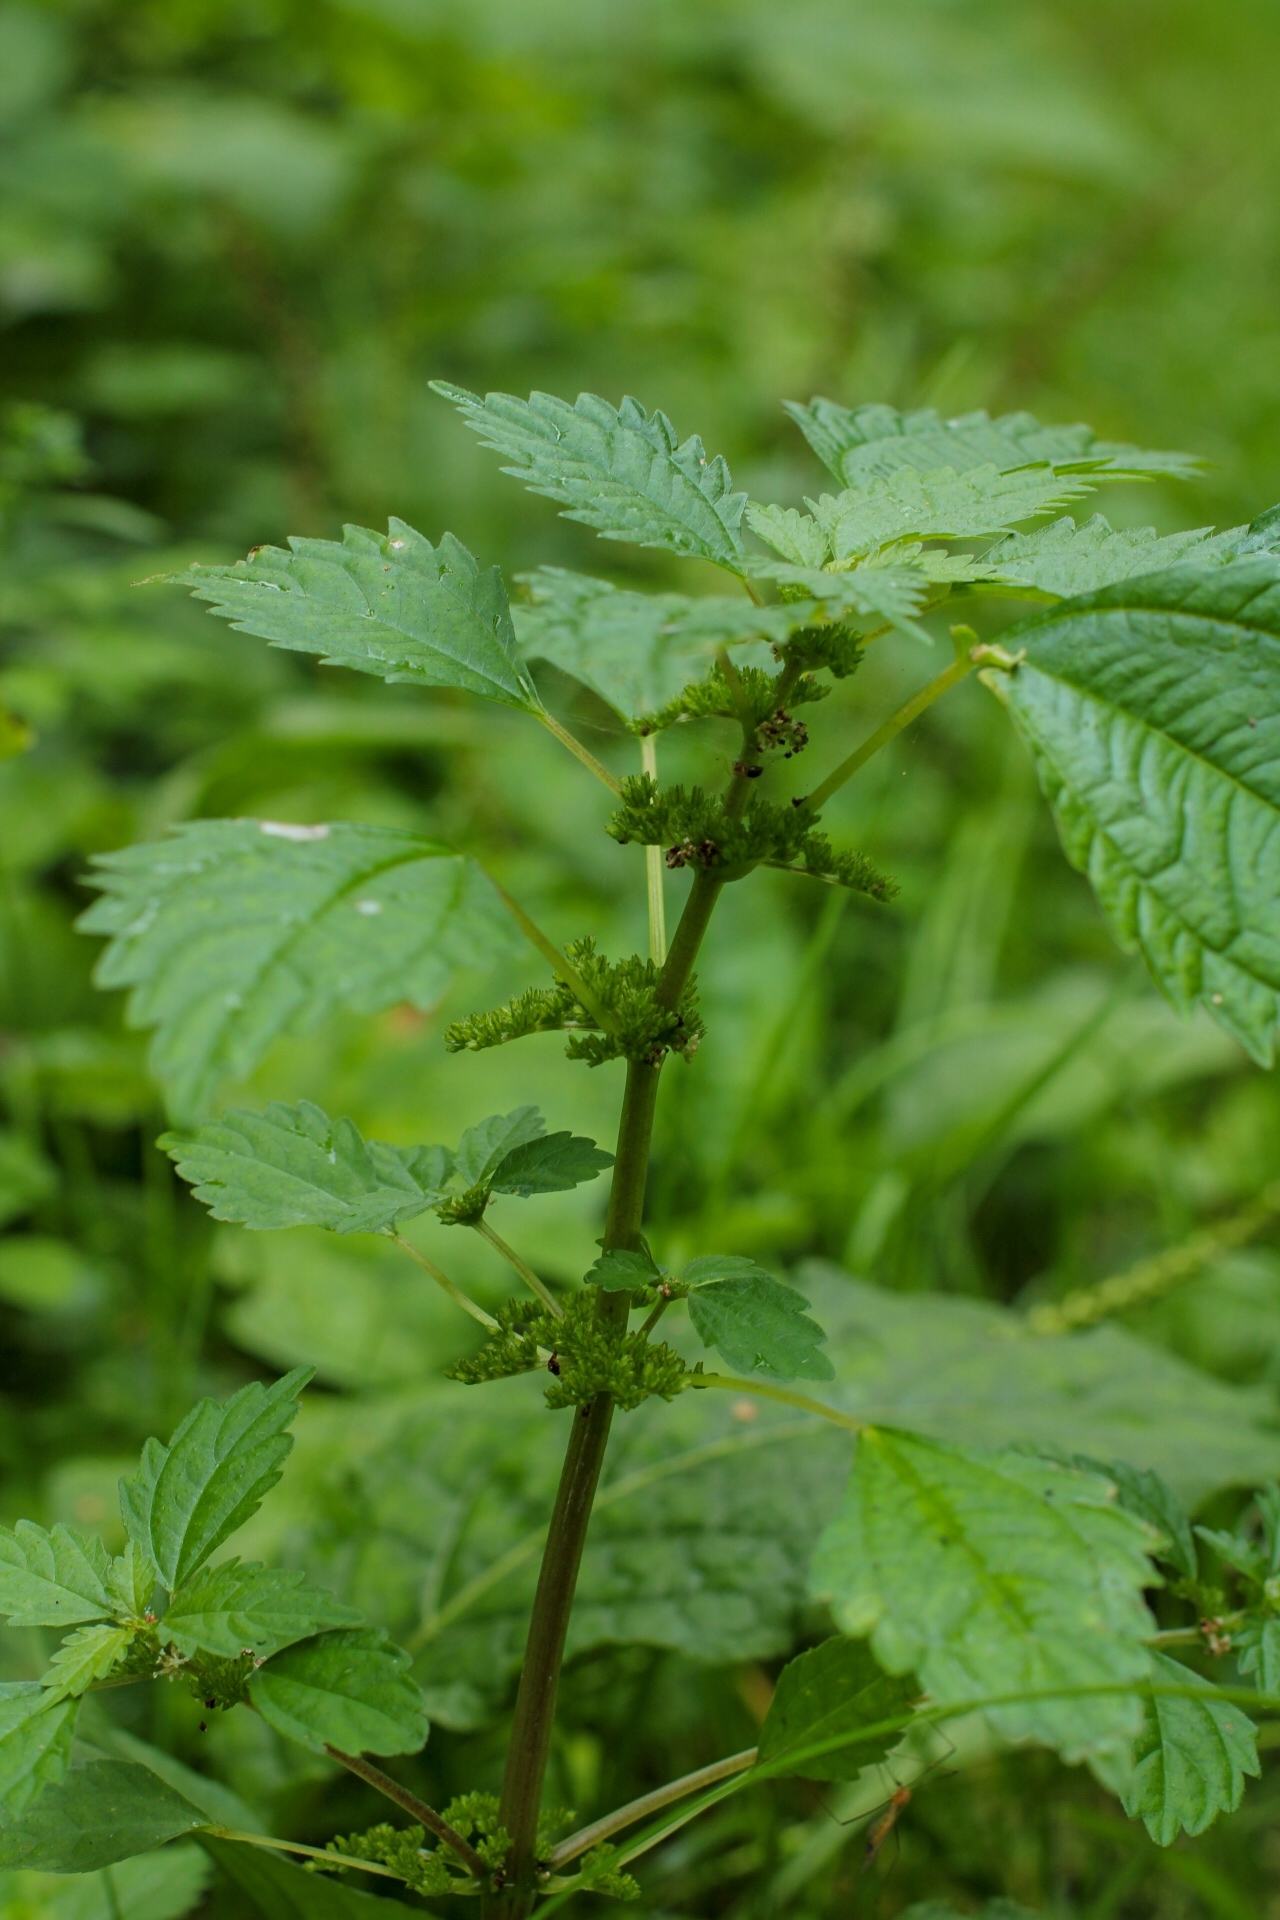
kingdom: Plantae
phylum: Tracheophyta
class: Magnoliopsida
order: Rosales
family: Urticaceae
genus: Pilea
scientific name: Pilea pumila
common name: Clearweed
